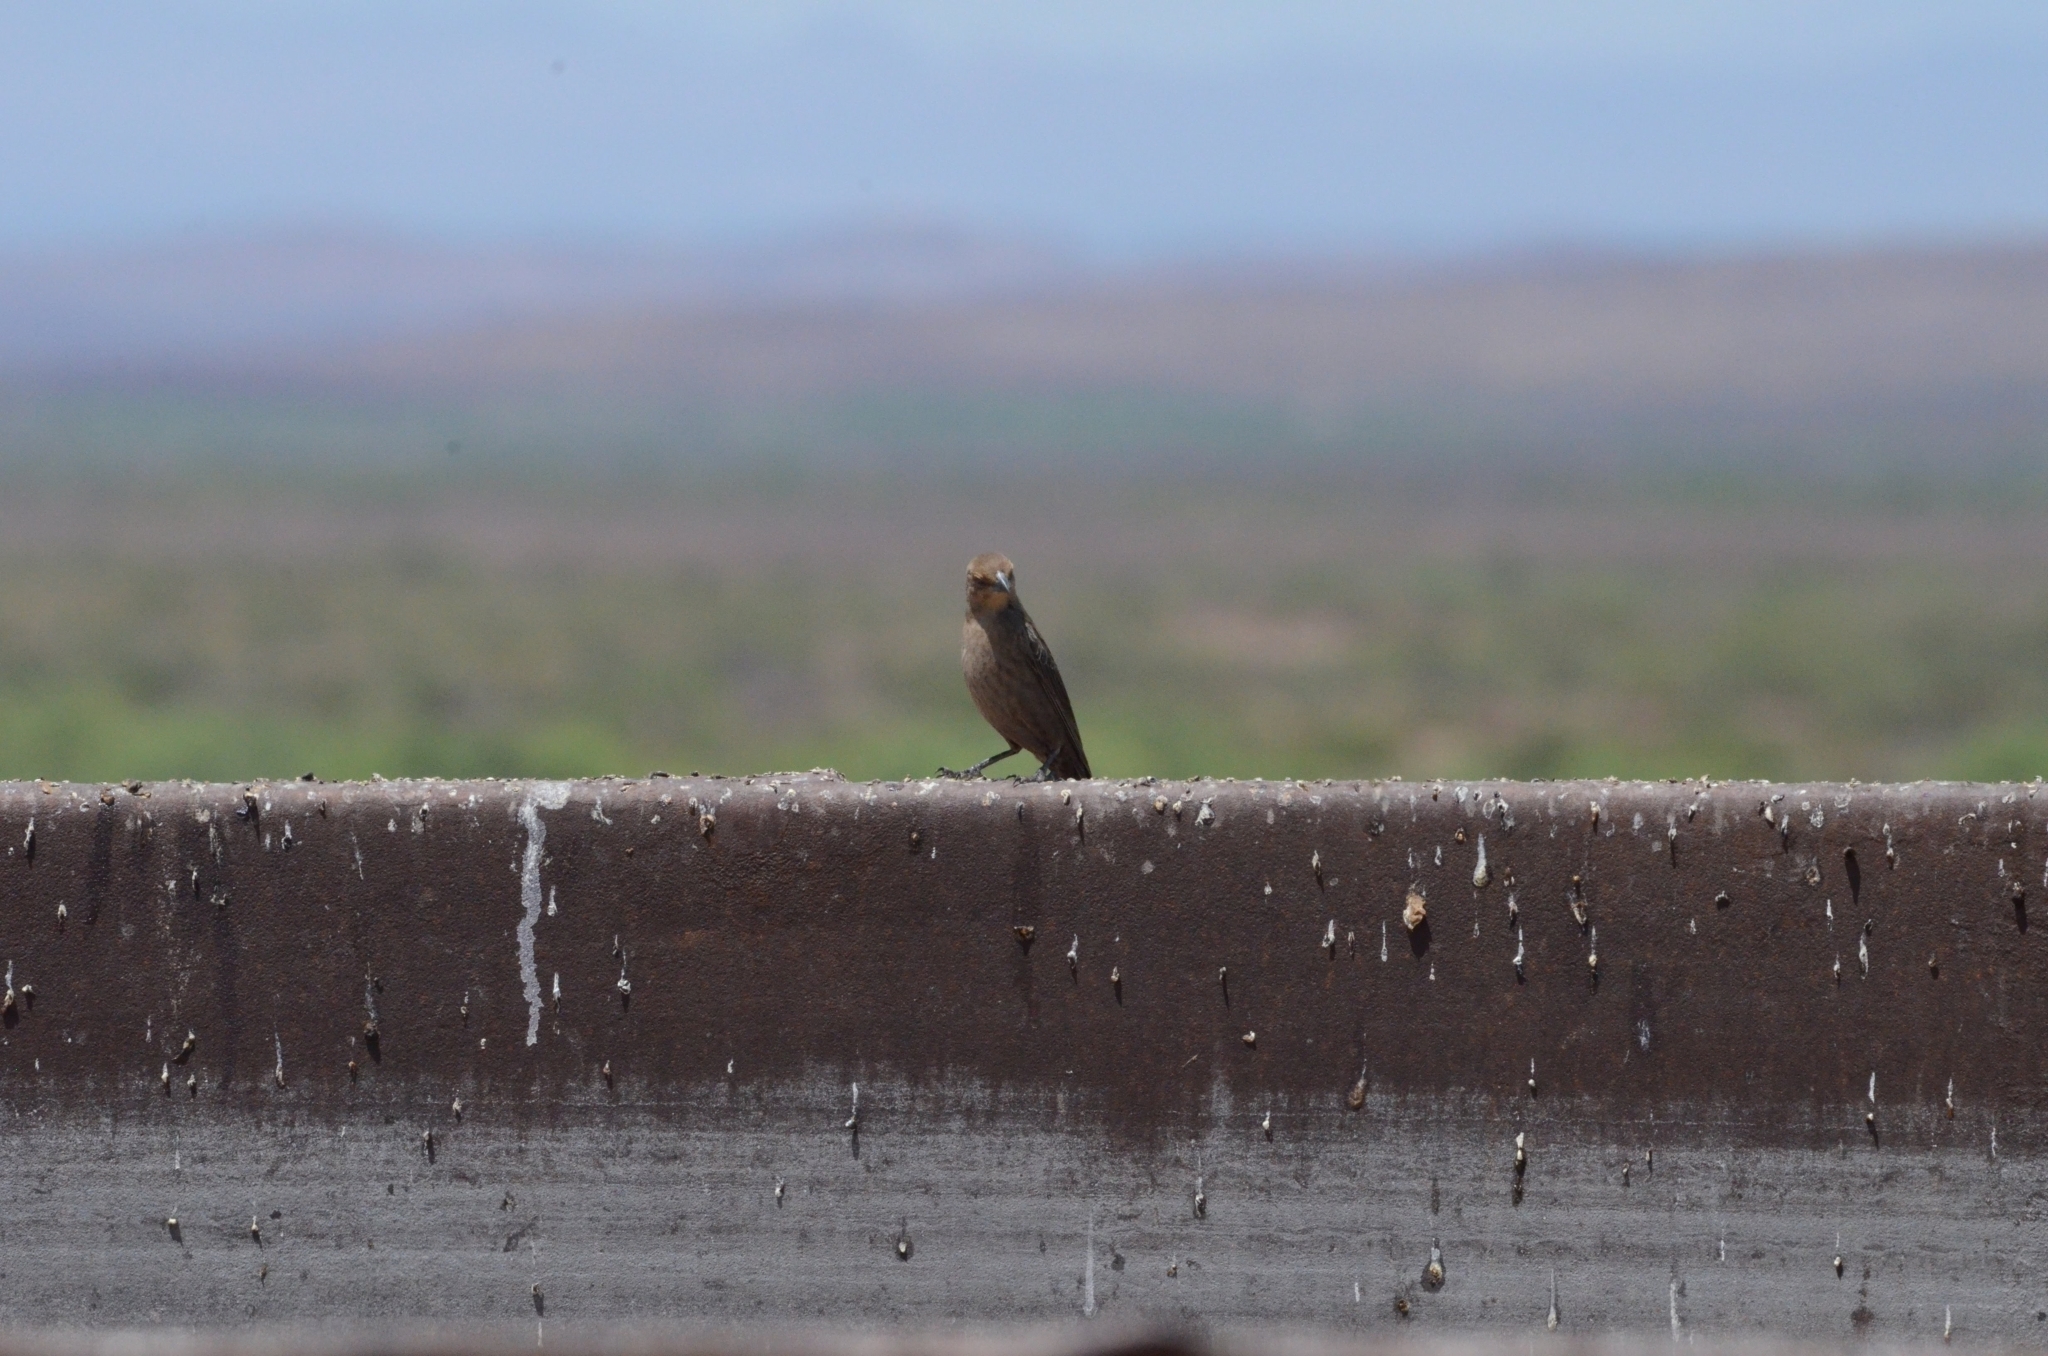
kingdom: Animalia
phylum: Chordata
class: Aves
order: Passeriformes
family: Icteridae
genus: Molothrus
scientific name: Molothrus ater
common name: Brown-headed cowbird
